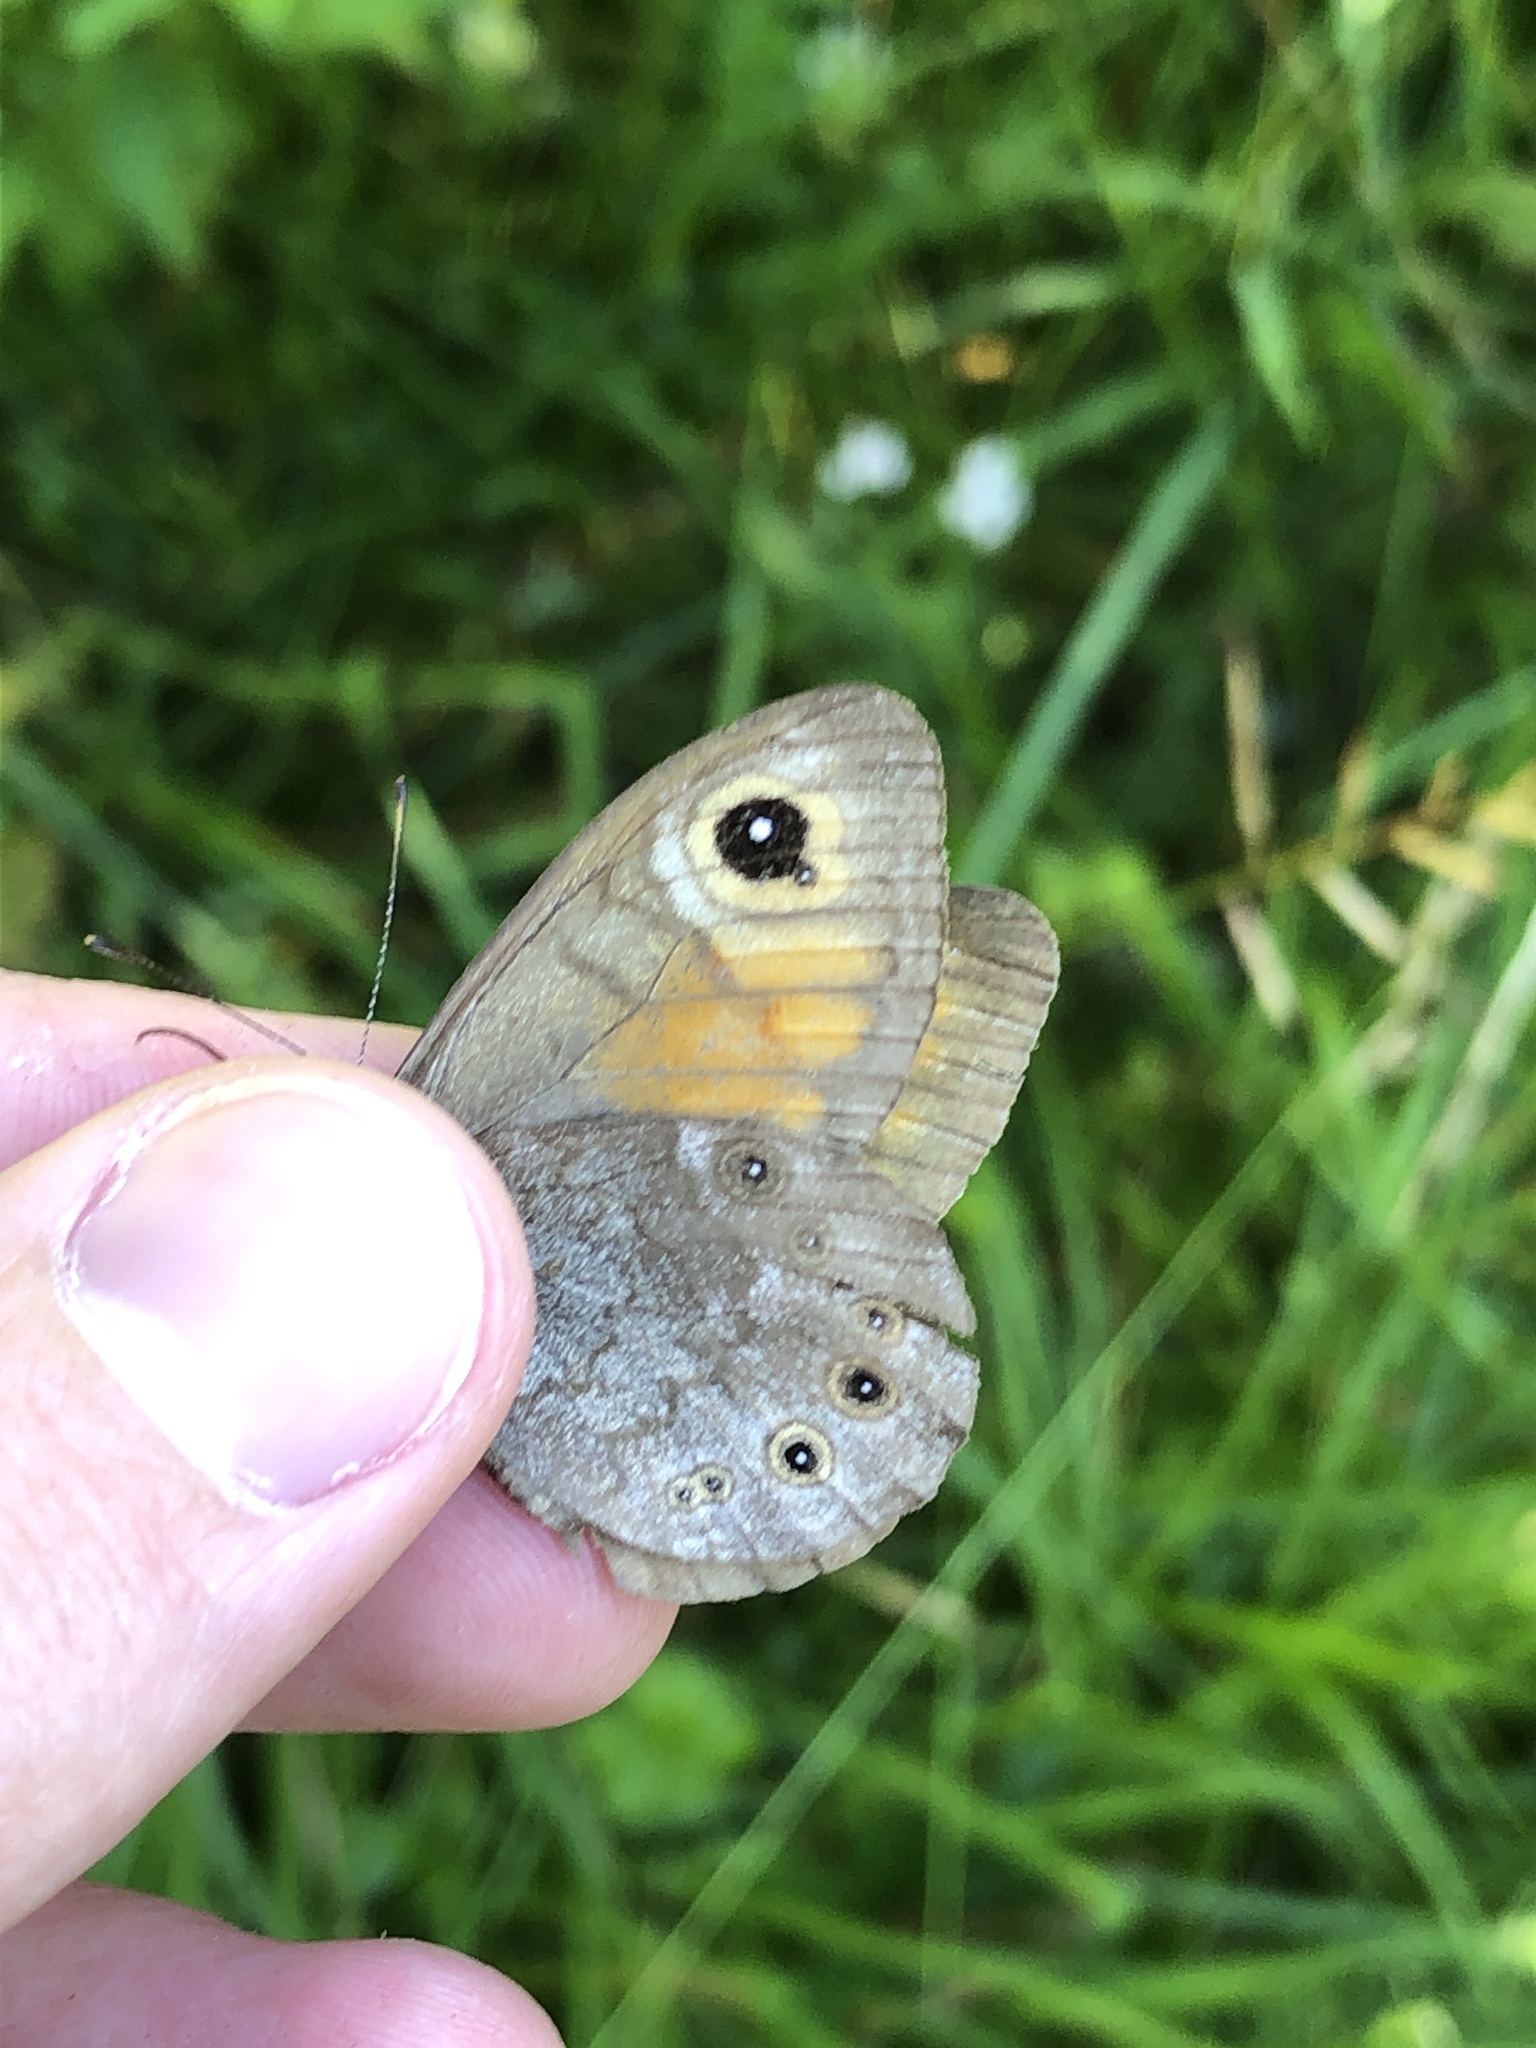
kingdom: Animalia
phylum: Arthropoda
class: Insecta
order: Lepidoptera
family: Nymphalidae
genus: Pararge
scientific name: Pararge Lasiommata maera
